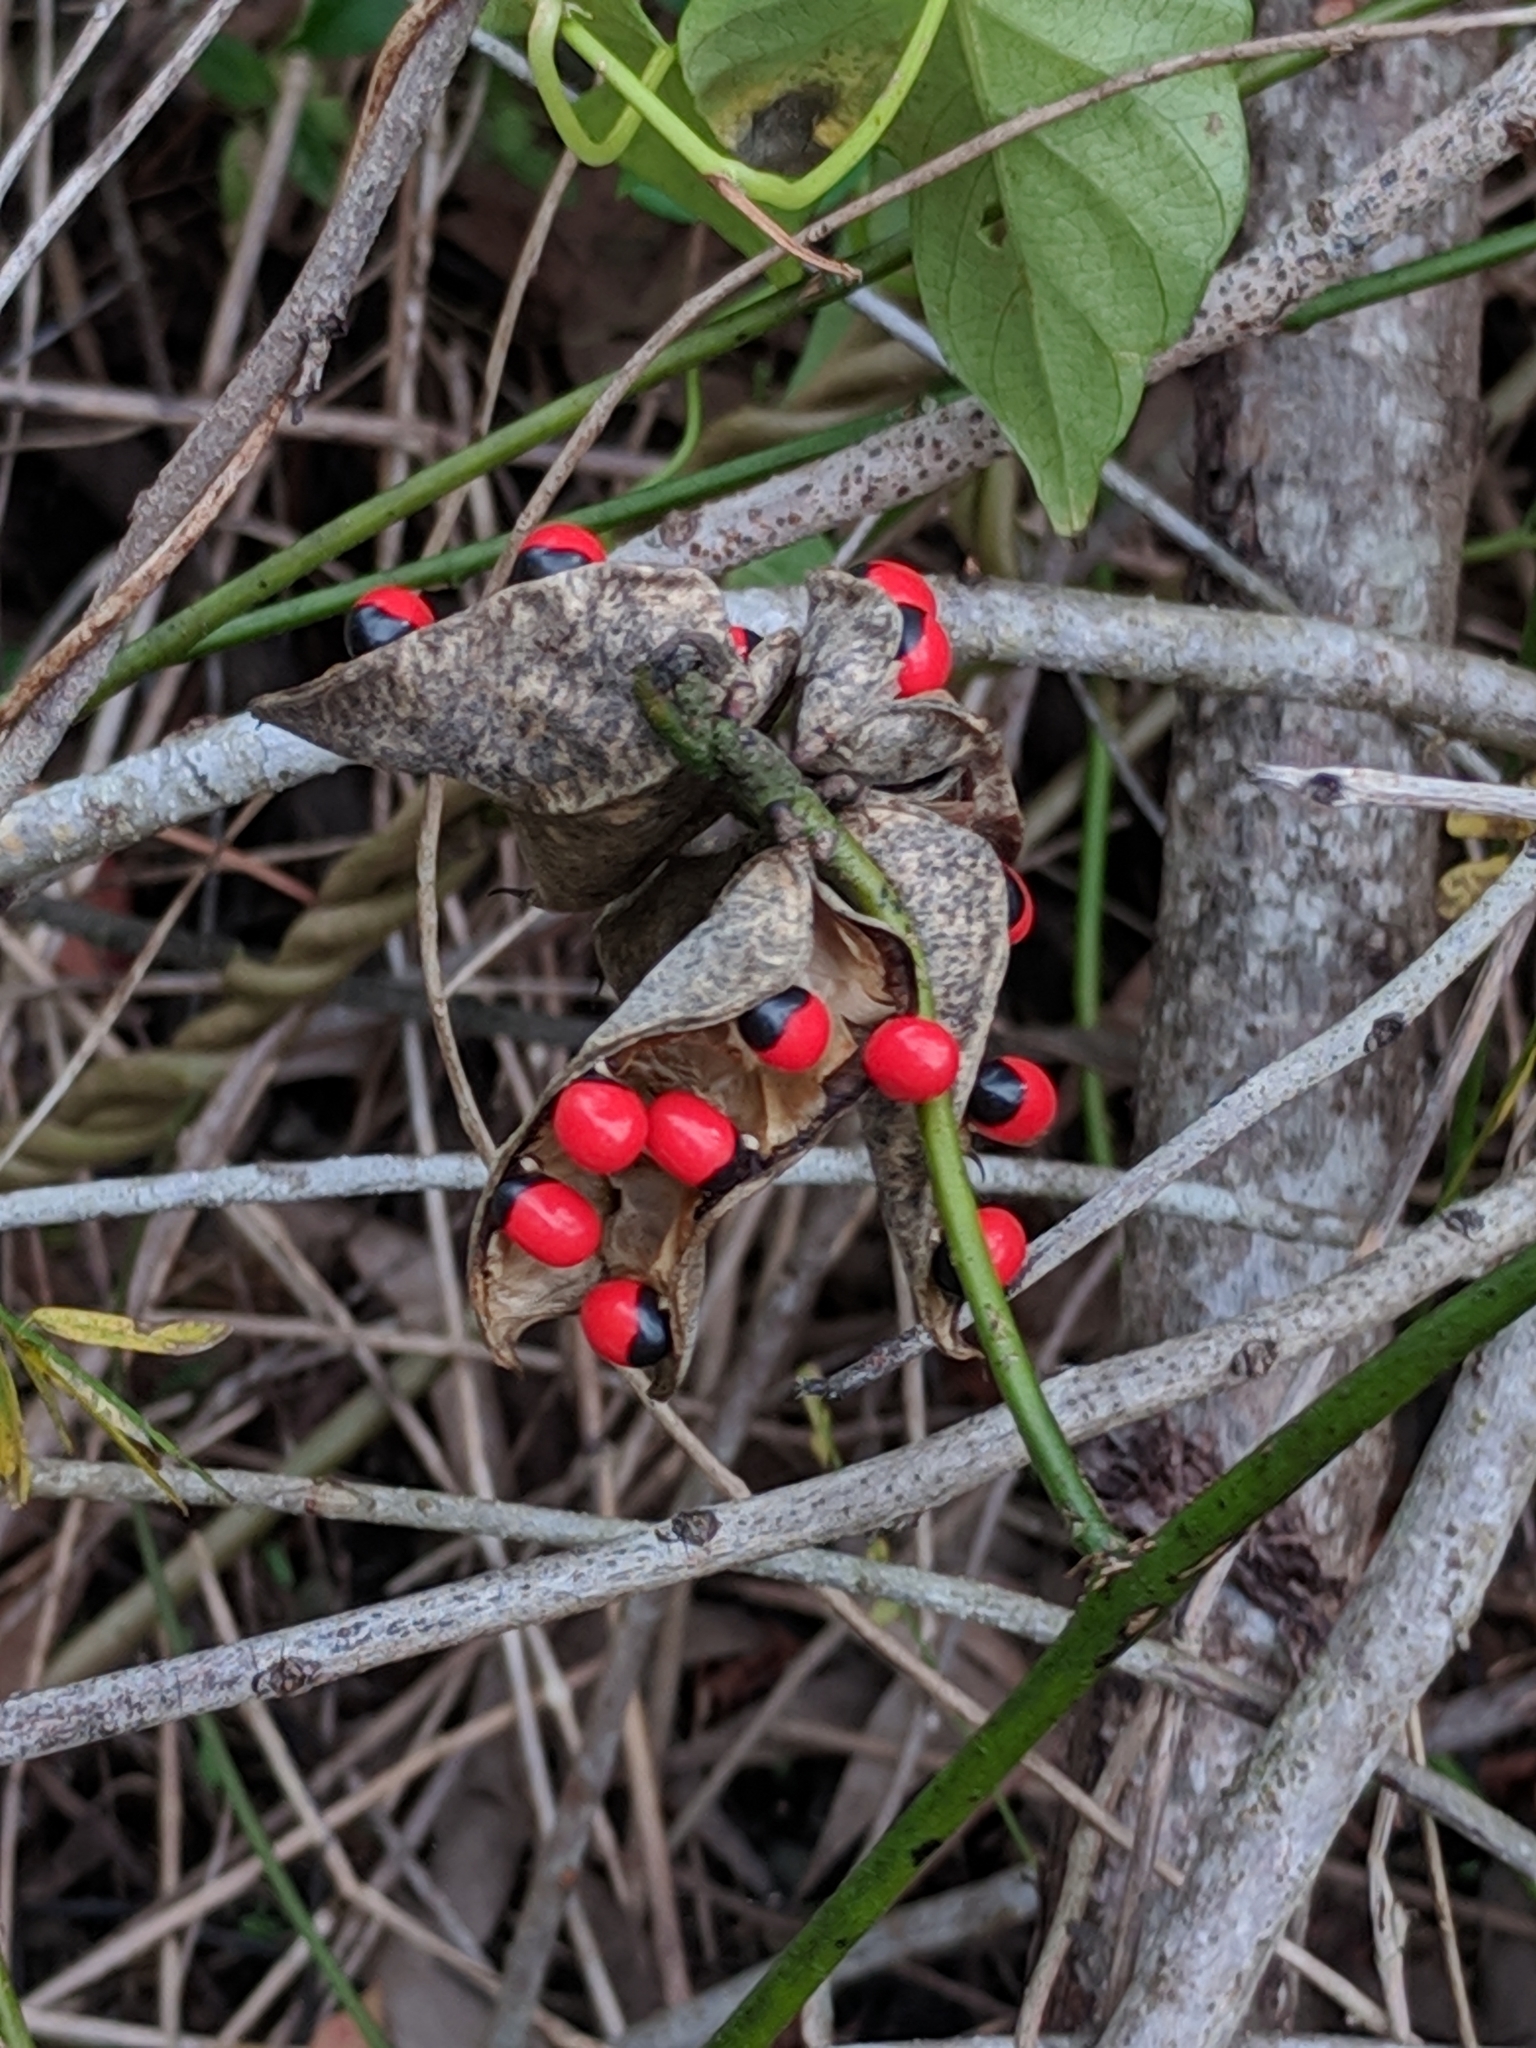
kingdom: Plantae
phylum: Tracheophyta
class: Magnoliopsida
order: Fabales
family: Fabaceae
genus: Abrus
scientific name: Abrus precatorius
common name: Rosarypea
